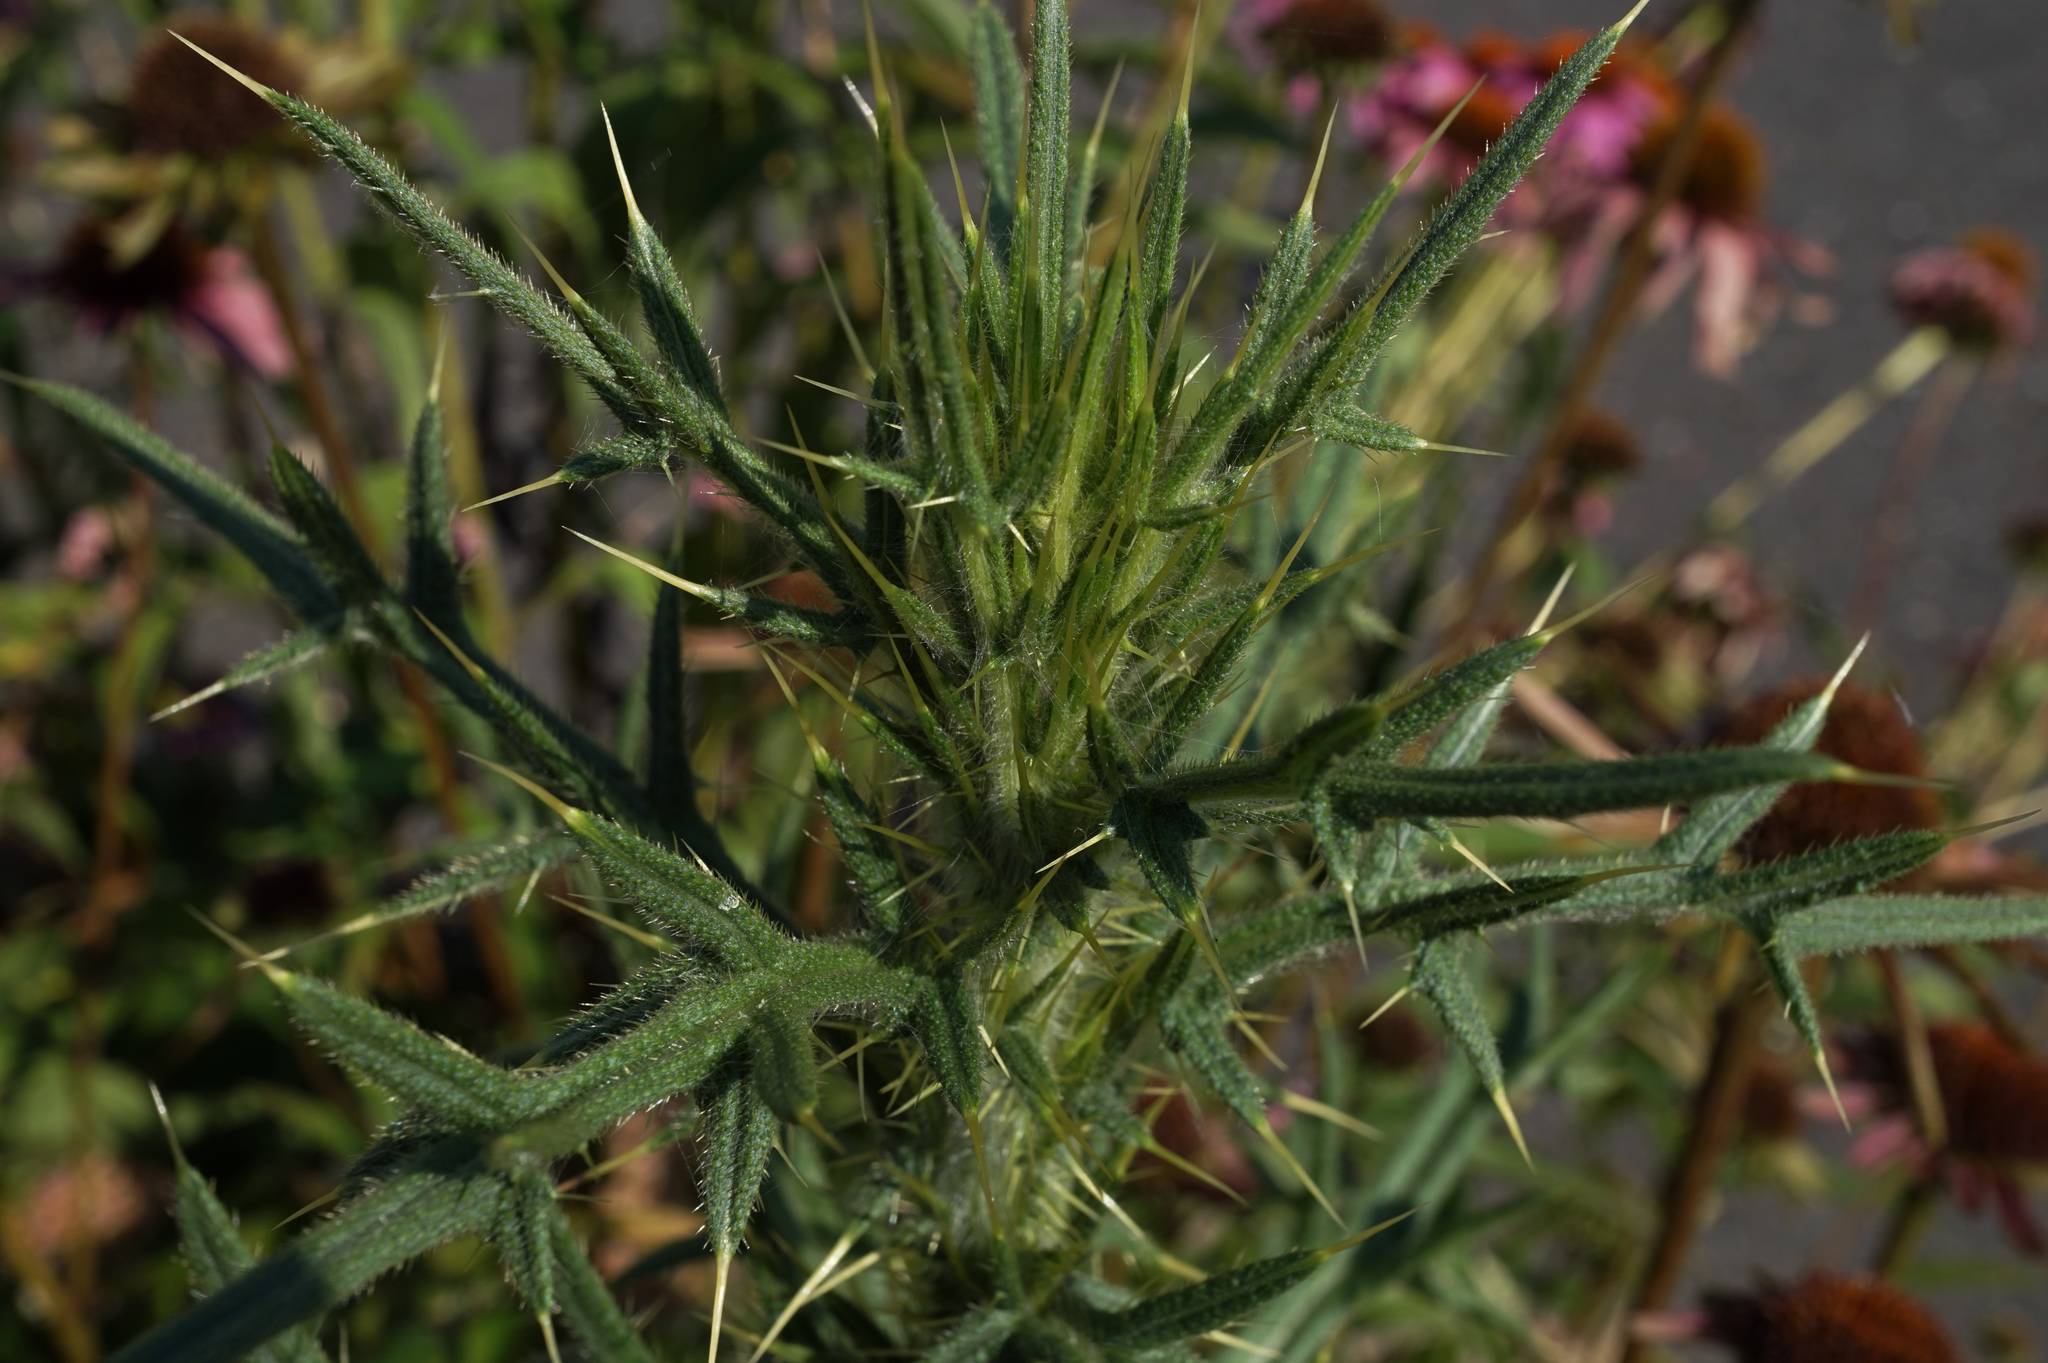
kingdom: Plantae
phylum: Tracheophyta
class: Magnoliopsida
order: Asterales
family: Asteraceae
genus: Cirsium
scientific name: Cirsium vulgare
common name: Bull thistle
